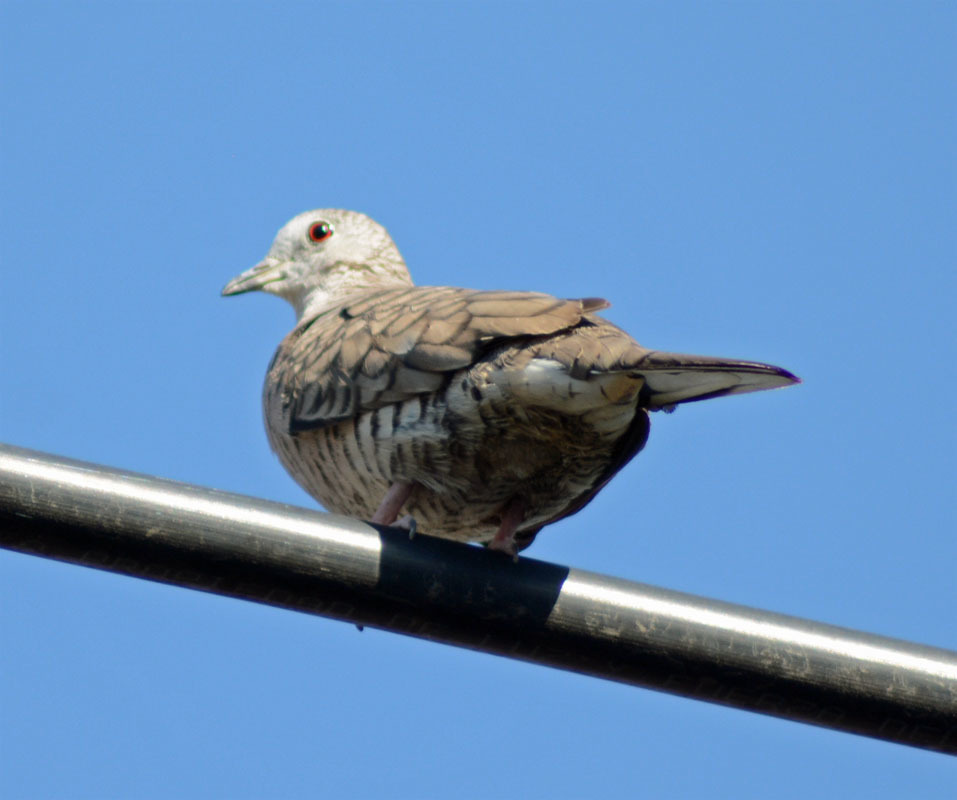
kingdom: Animalia
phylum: Chordata
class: Aves
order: Columbiformes
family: Columbidae
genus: Columbina
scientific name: Columbina inca
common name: Inca dove
